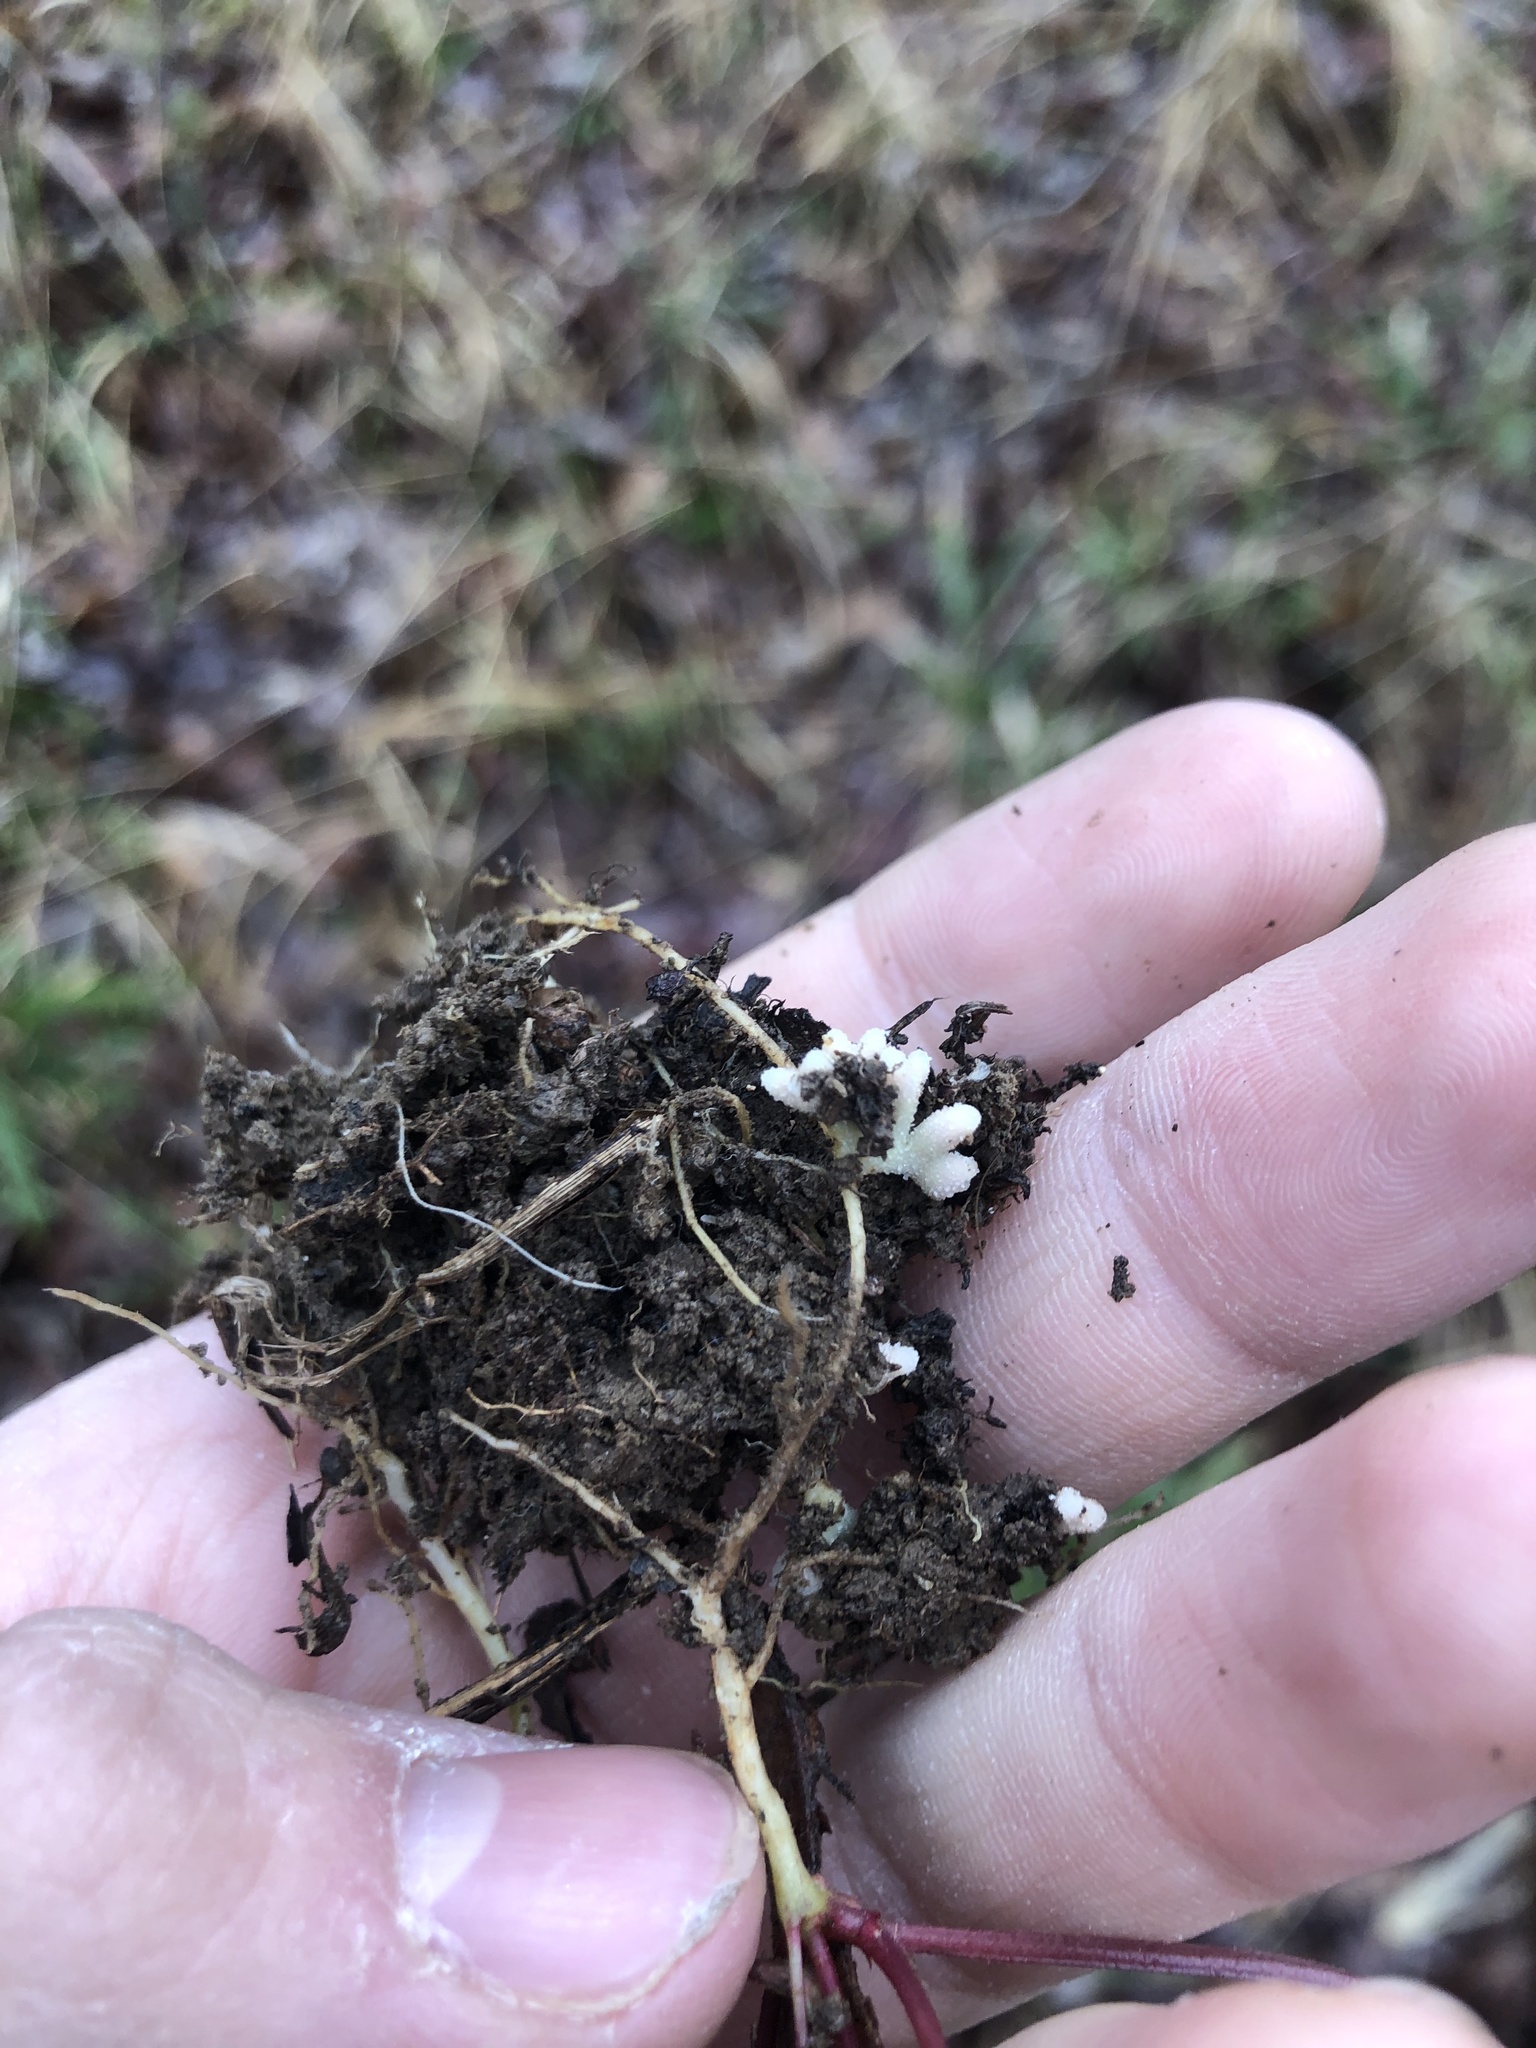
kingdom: Plantae
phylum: Tracheophyta
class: Magnoliopsida
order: Fabales
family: Fabaceae
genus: Vicia
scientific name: Vicia minutiflora
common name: Pygmy-flower vetch
